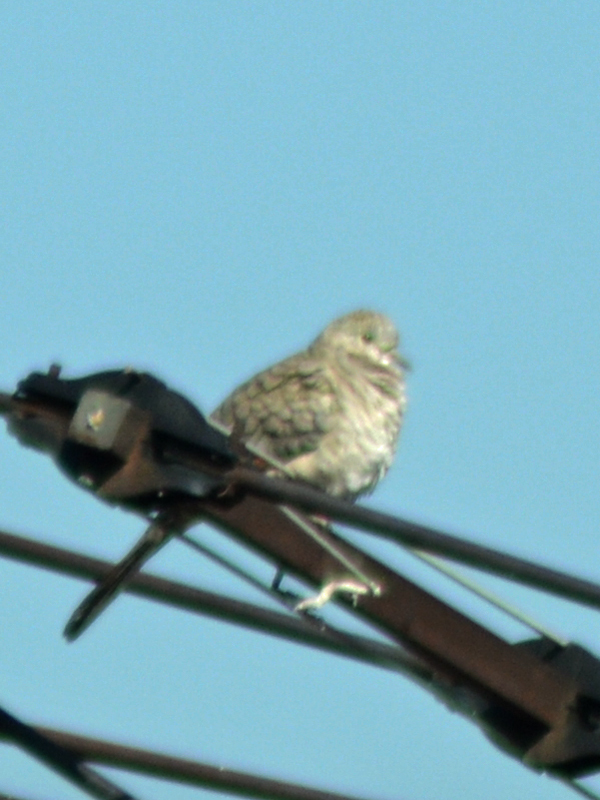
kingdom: Animalia
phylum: Chordata
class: Aves
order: Columbiformes
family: Columbidae
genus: Columbina
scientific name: Columbina inca
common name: Inca dove
